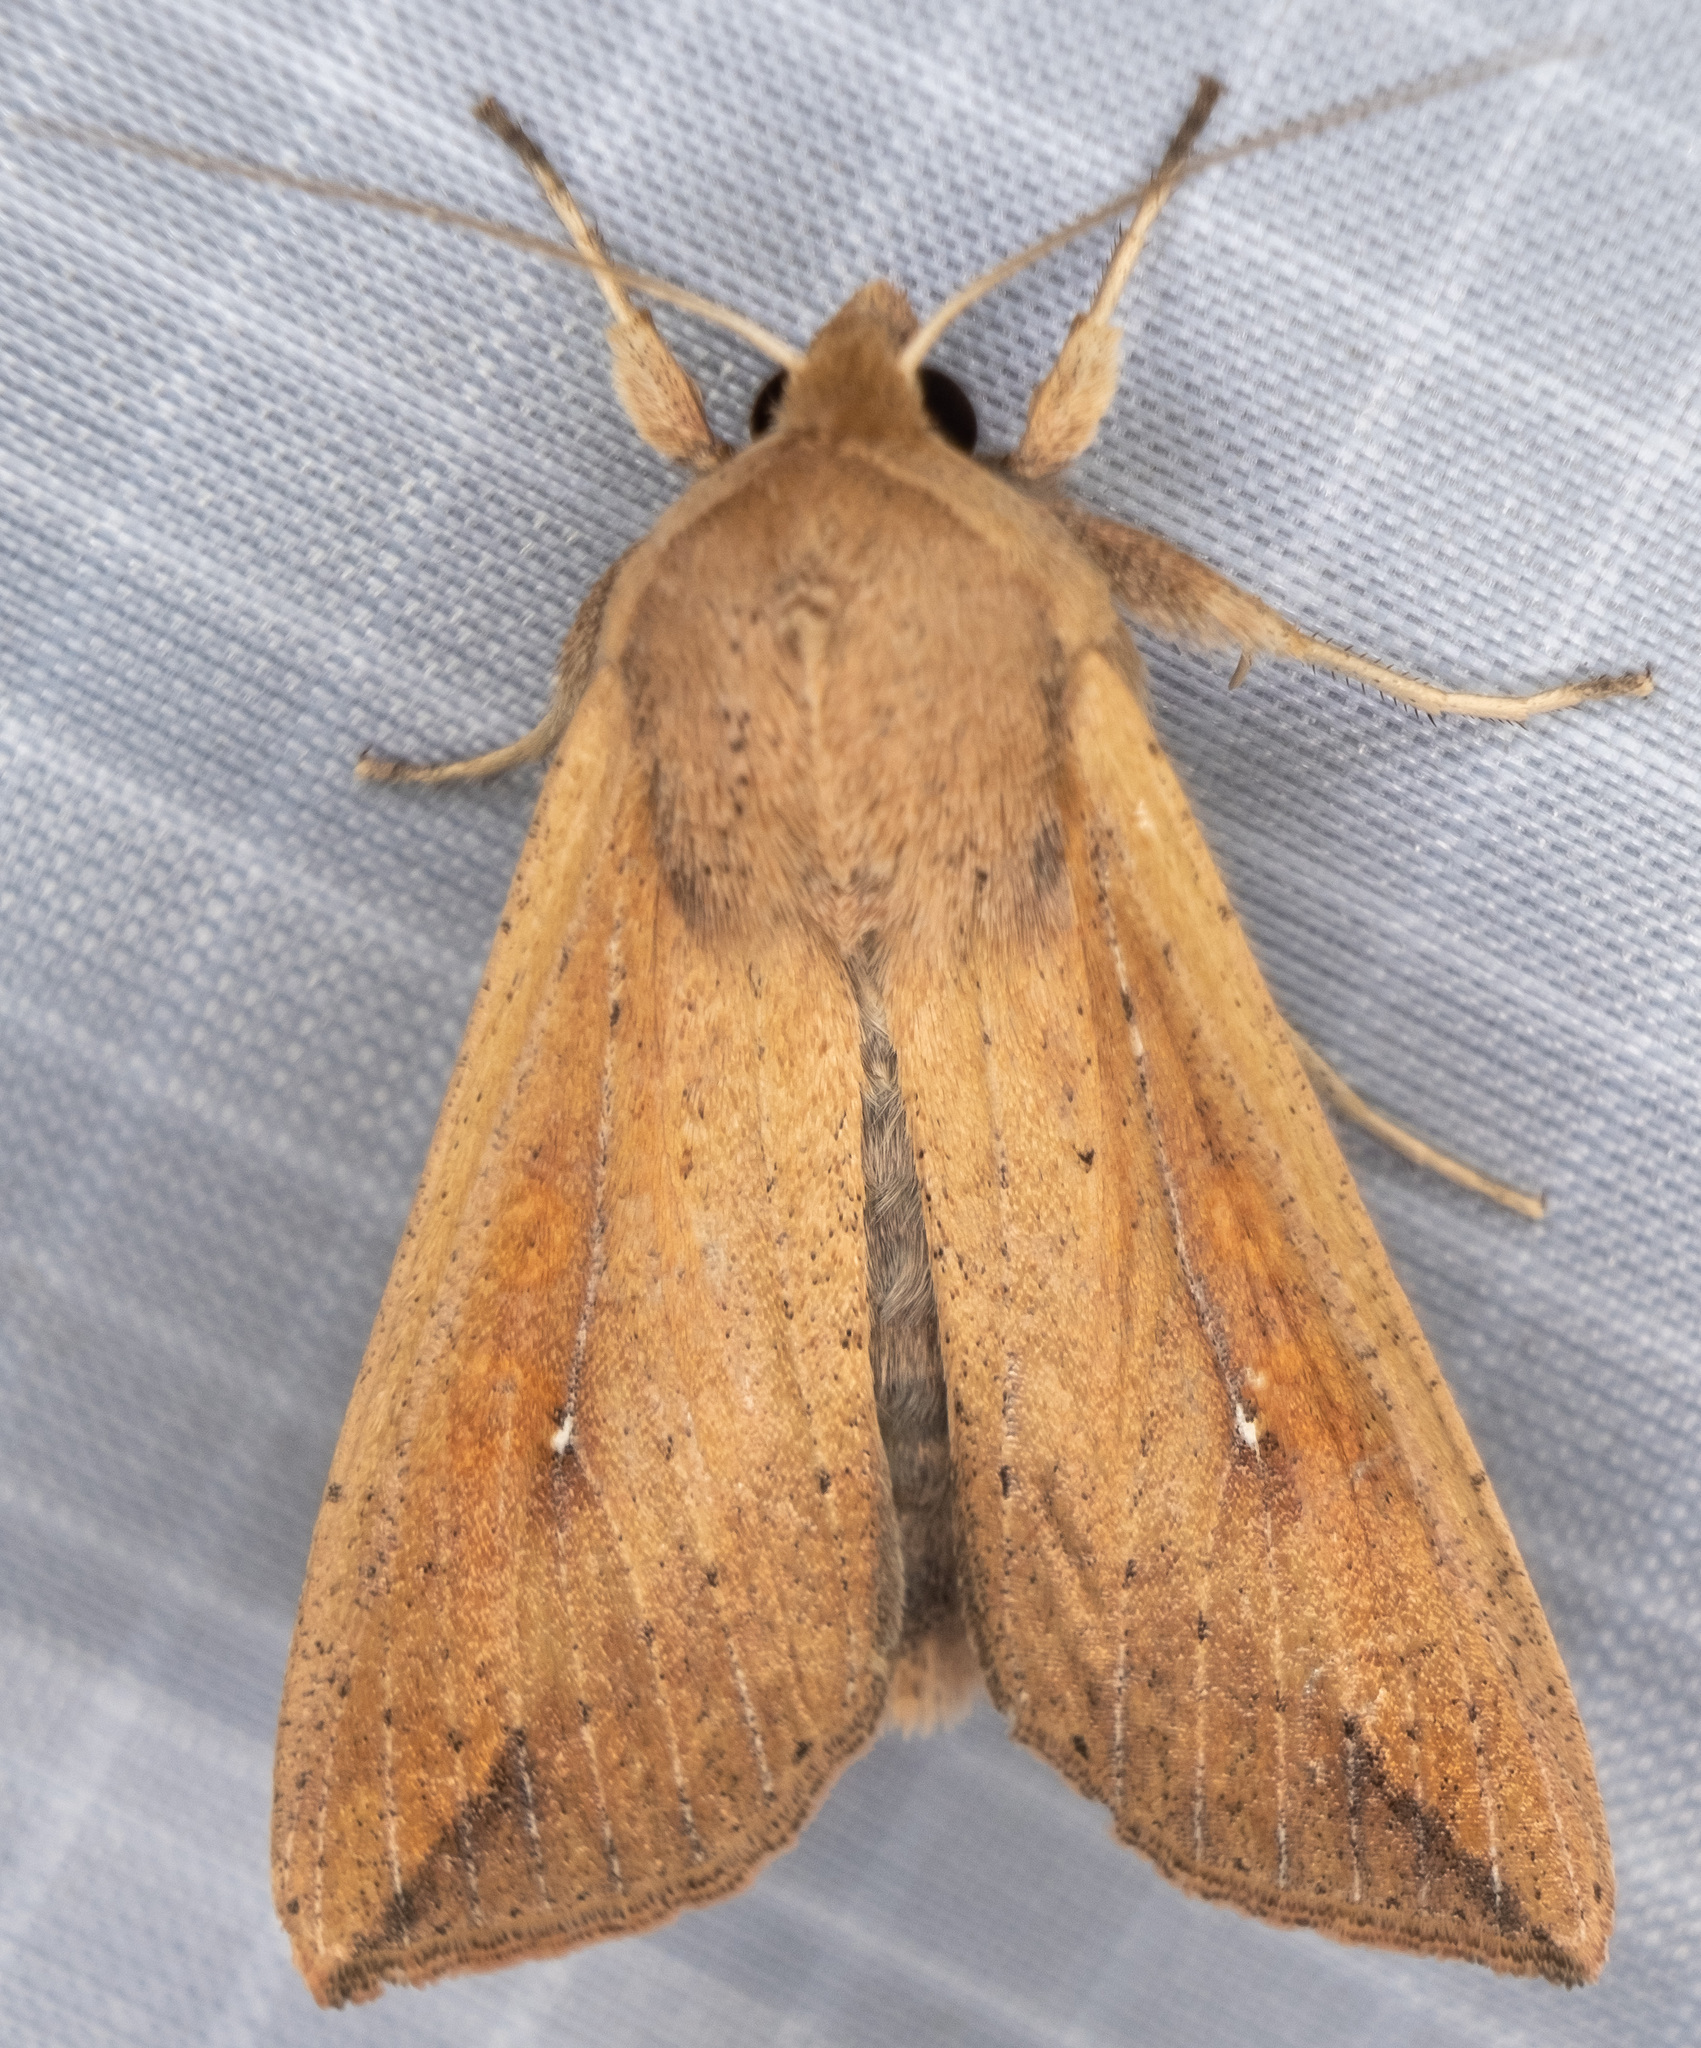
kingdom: Animalia
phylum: Arthropoda
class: Insecta
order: Lepidoptera
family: Noctuidae
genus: Mythimna
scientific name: Mythimna unipuncta
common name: White-speck
